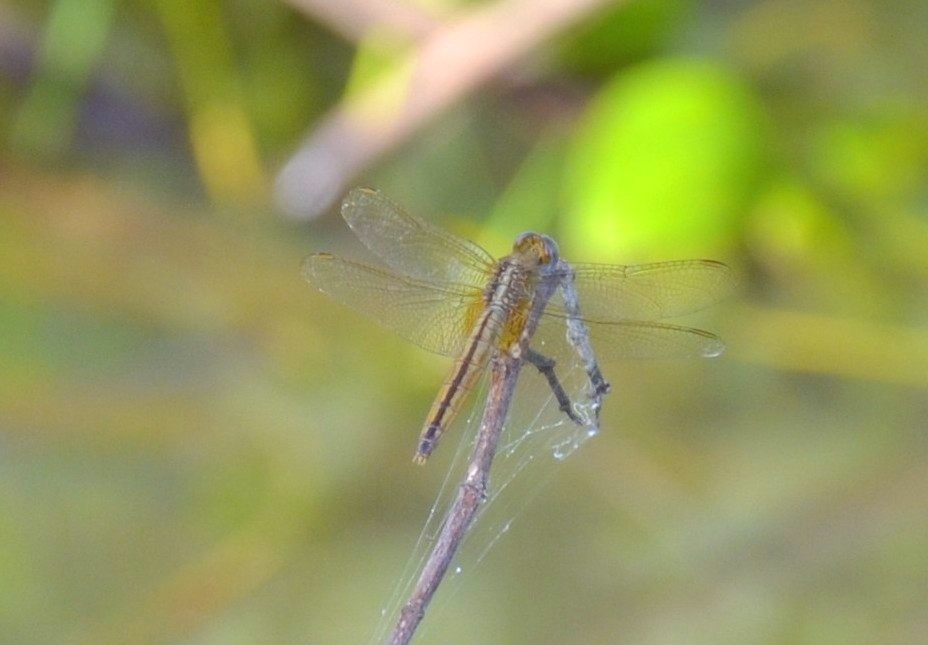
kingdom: Animalia
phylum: Arthropoda
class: Insecta
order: Odonata
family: Libellulidae
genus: Crocothemis
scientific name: Crocothemis servilia
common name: Scarlet skimmer
